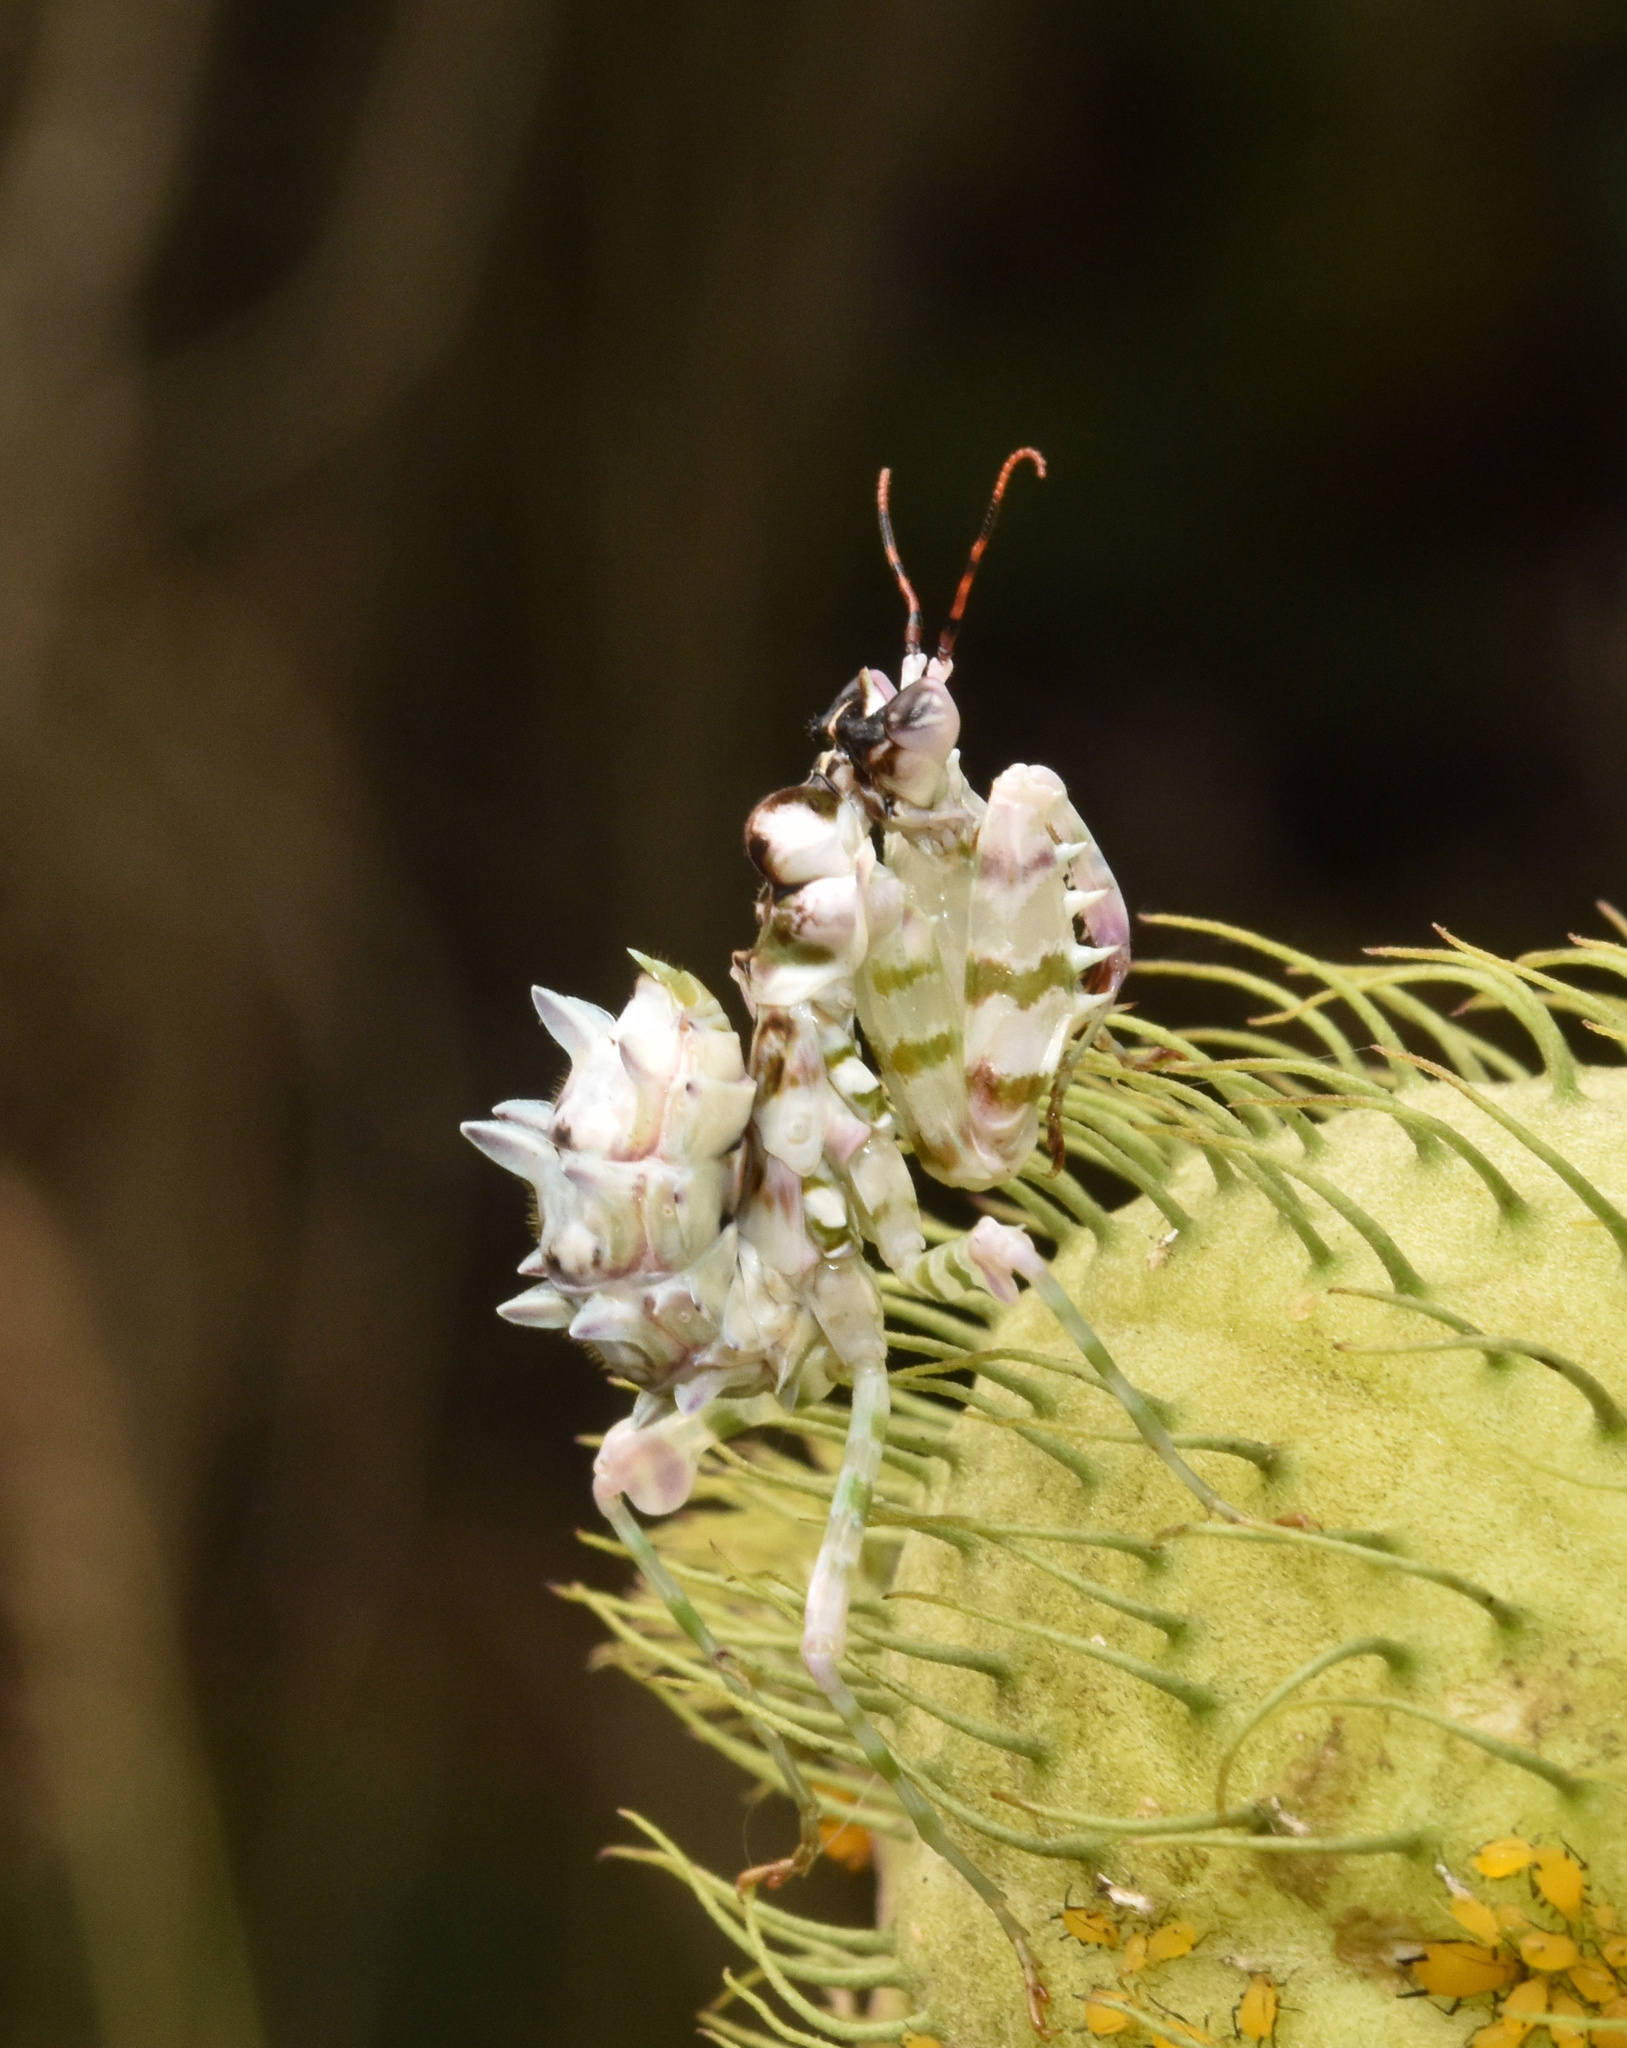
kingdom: Animalia
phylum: Arthropoda
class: Insecta
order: Mantodea
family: Hymenopodidae
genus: Pseudocreobotra
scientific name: Pseudocreobotra wahlbergi
